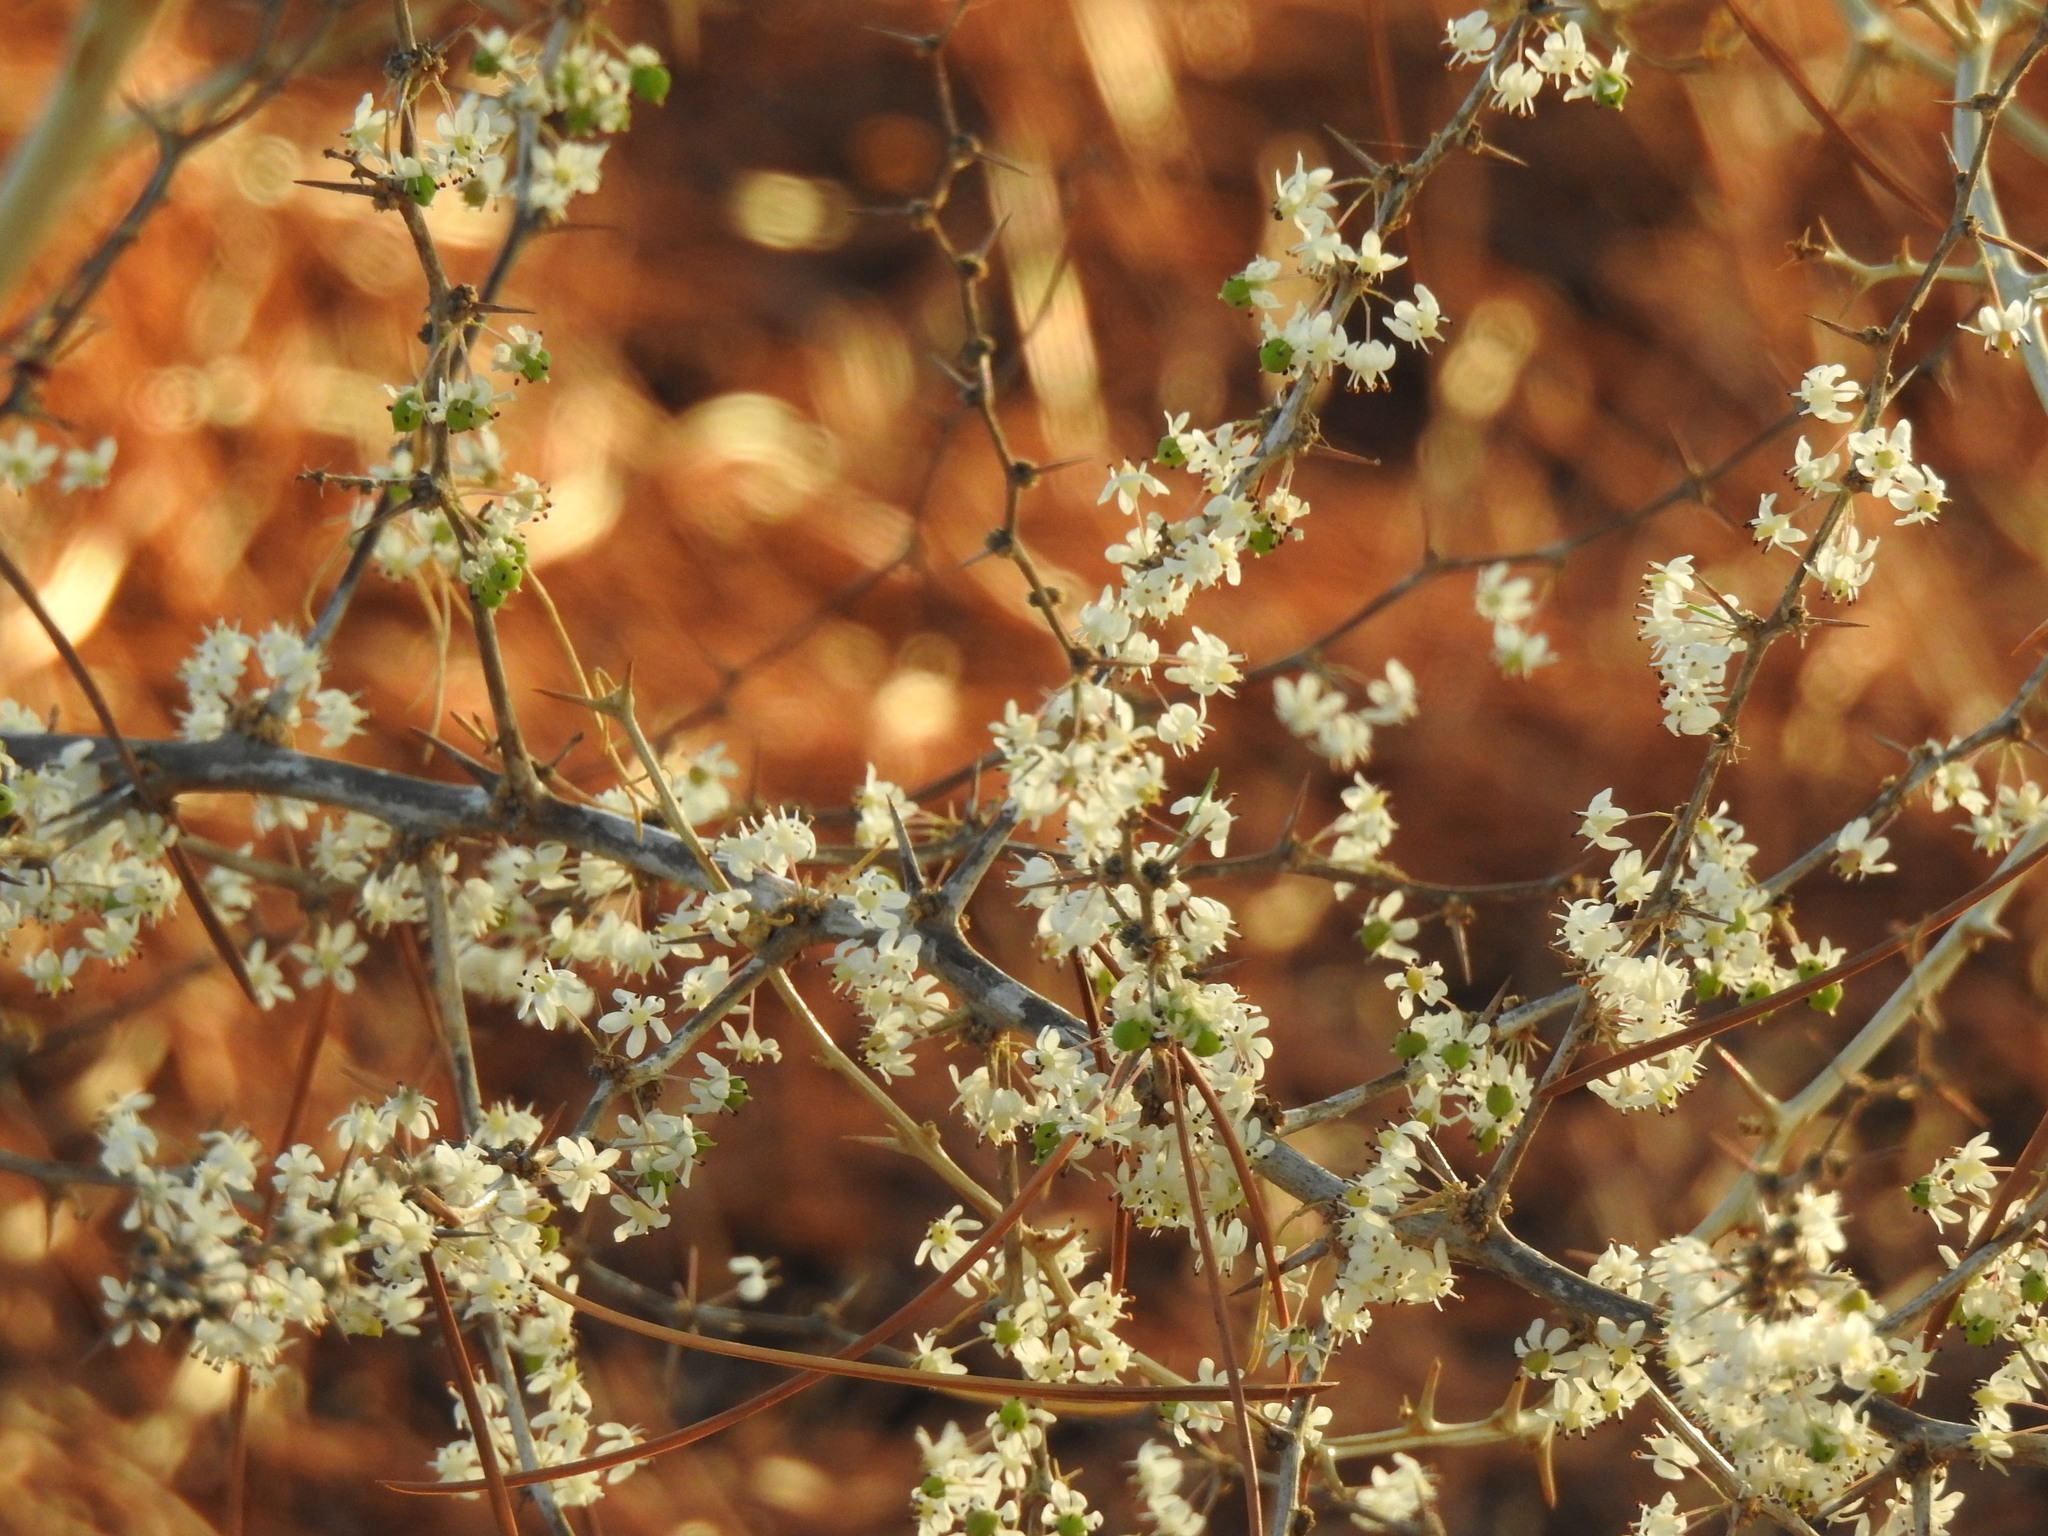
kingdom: Plantae
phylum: Tracheophyta
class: Liliopsida
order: Asparagales
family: Asparagaceae
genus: Asparagus
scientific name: Asparagus albus
